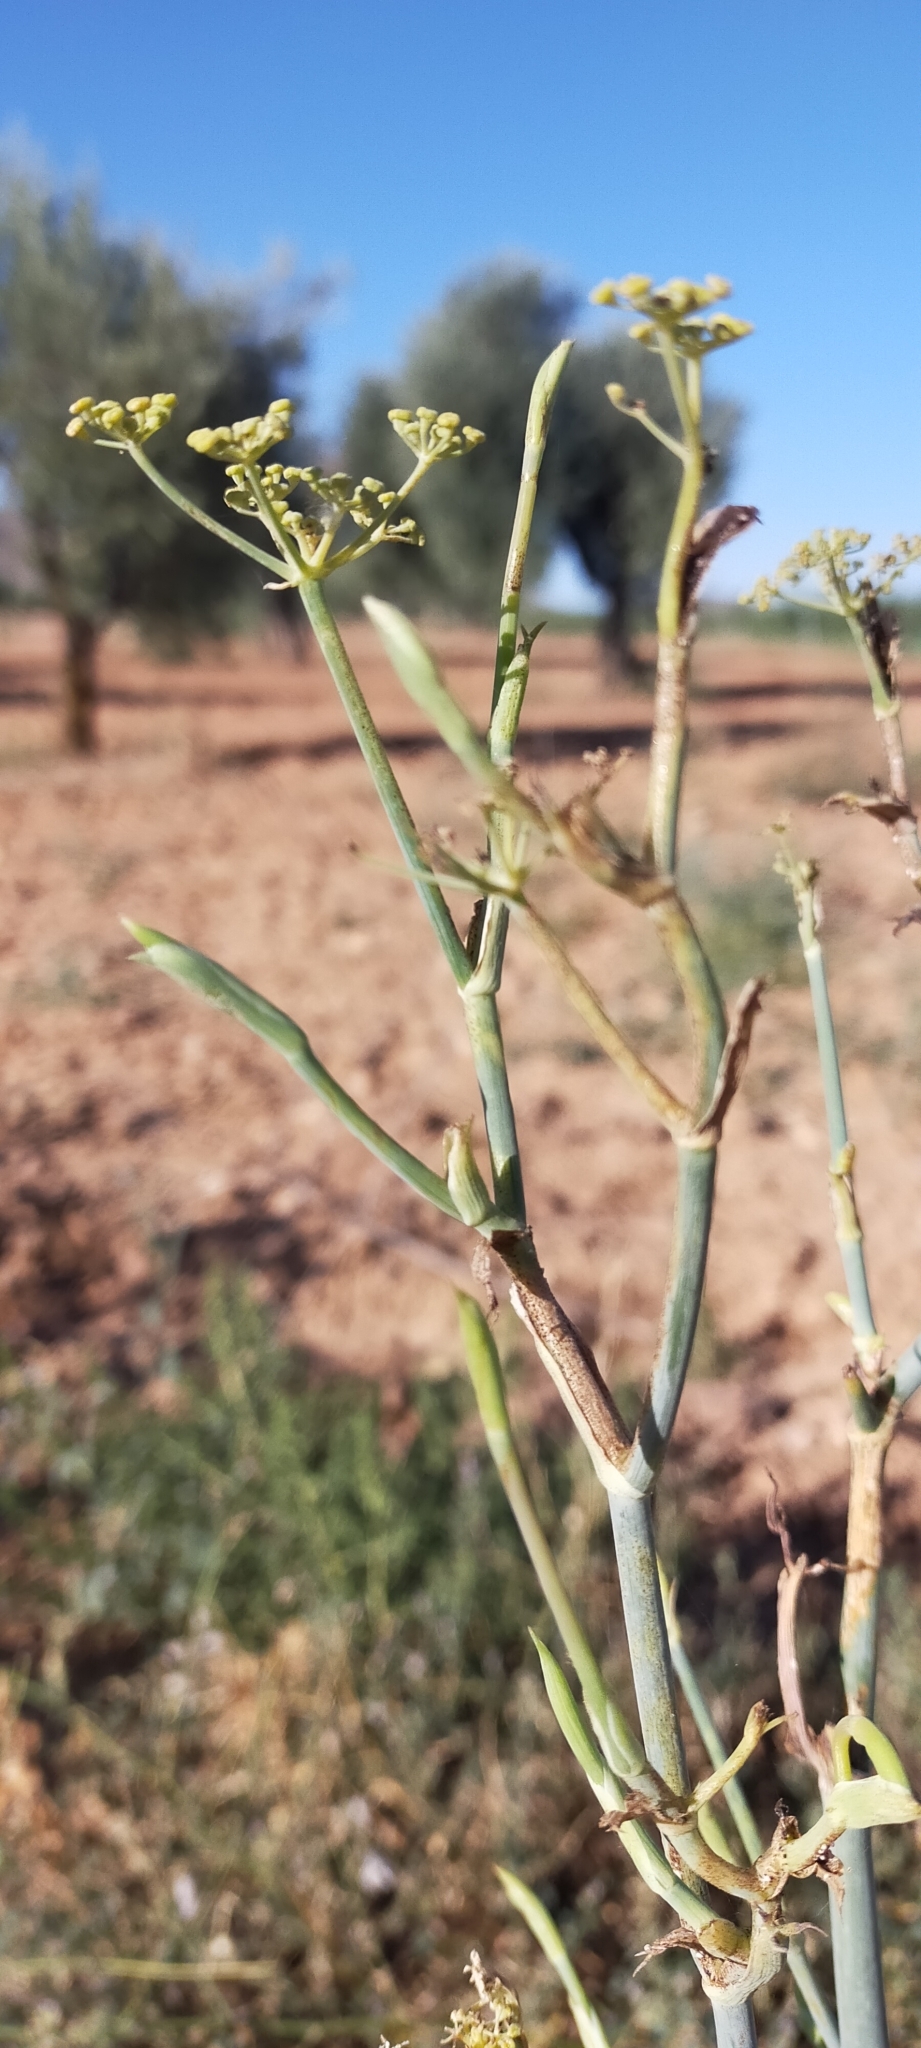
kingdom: Plantae
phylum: Tracheophyta
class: Magnoliopsida
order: Apiales
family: Apiaceae
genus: Foeniculum
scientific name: Foeniculum vulgare
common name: Fennel
